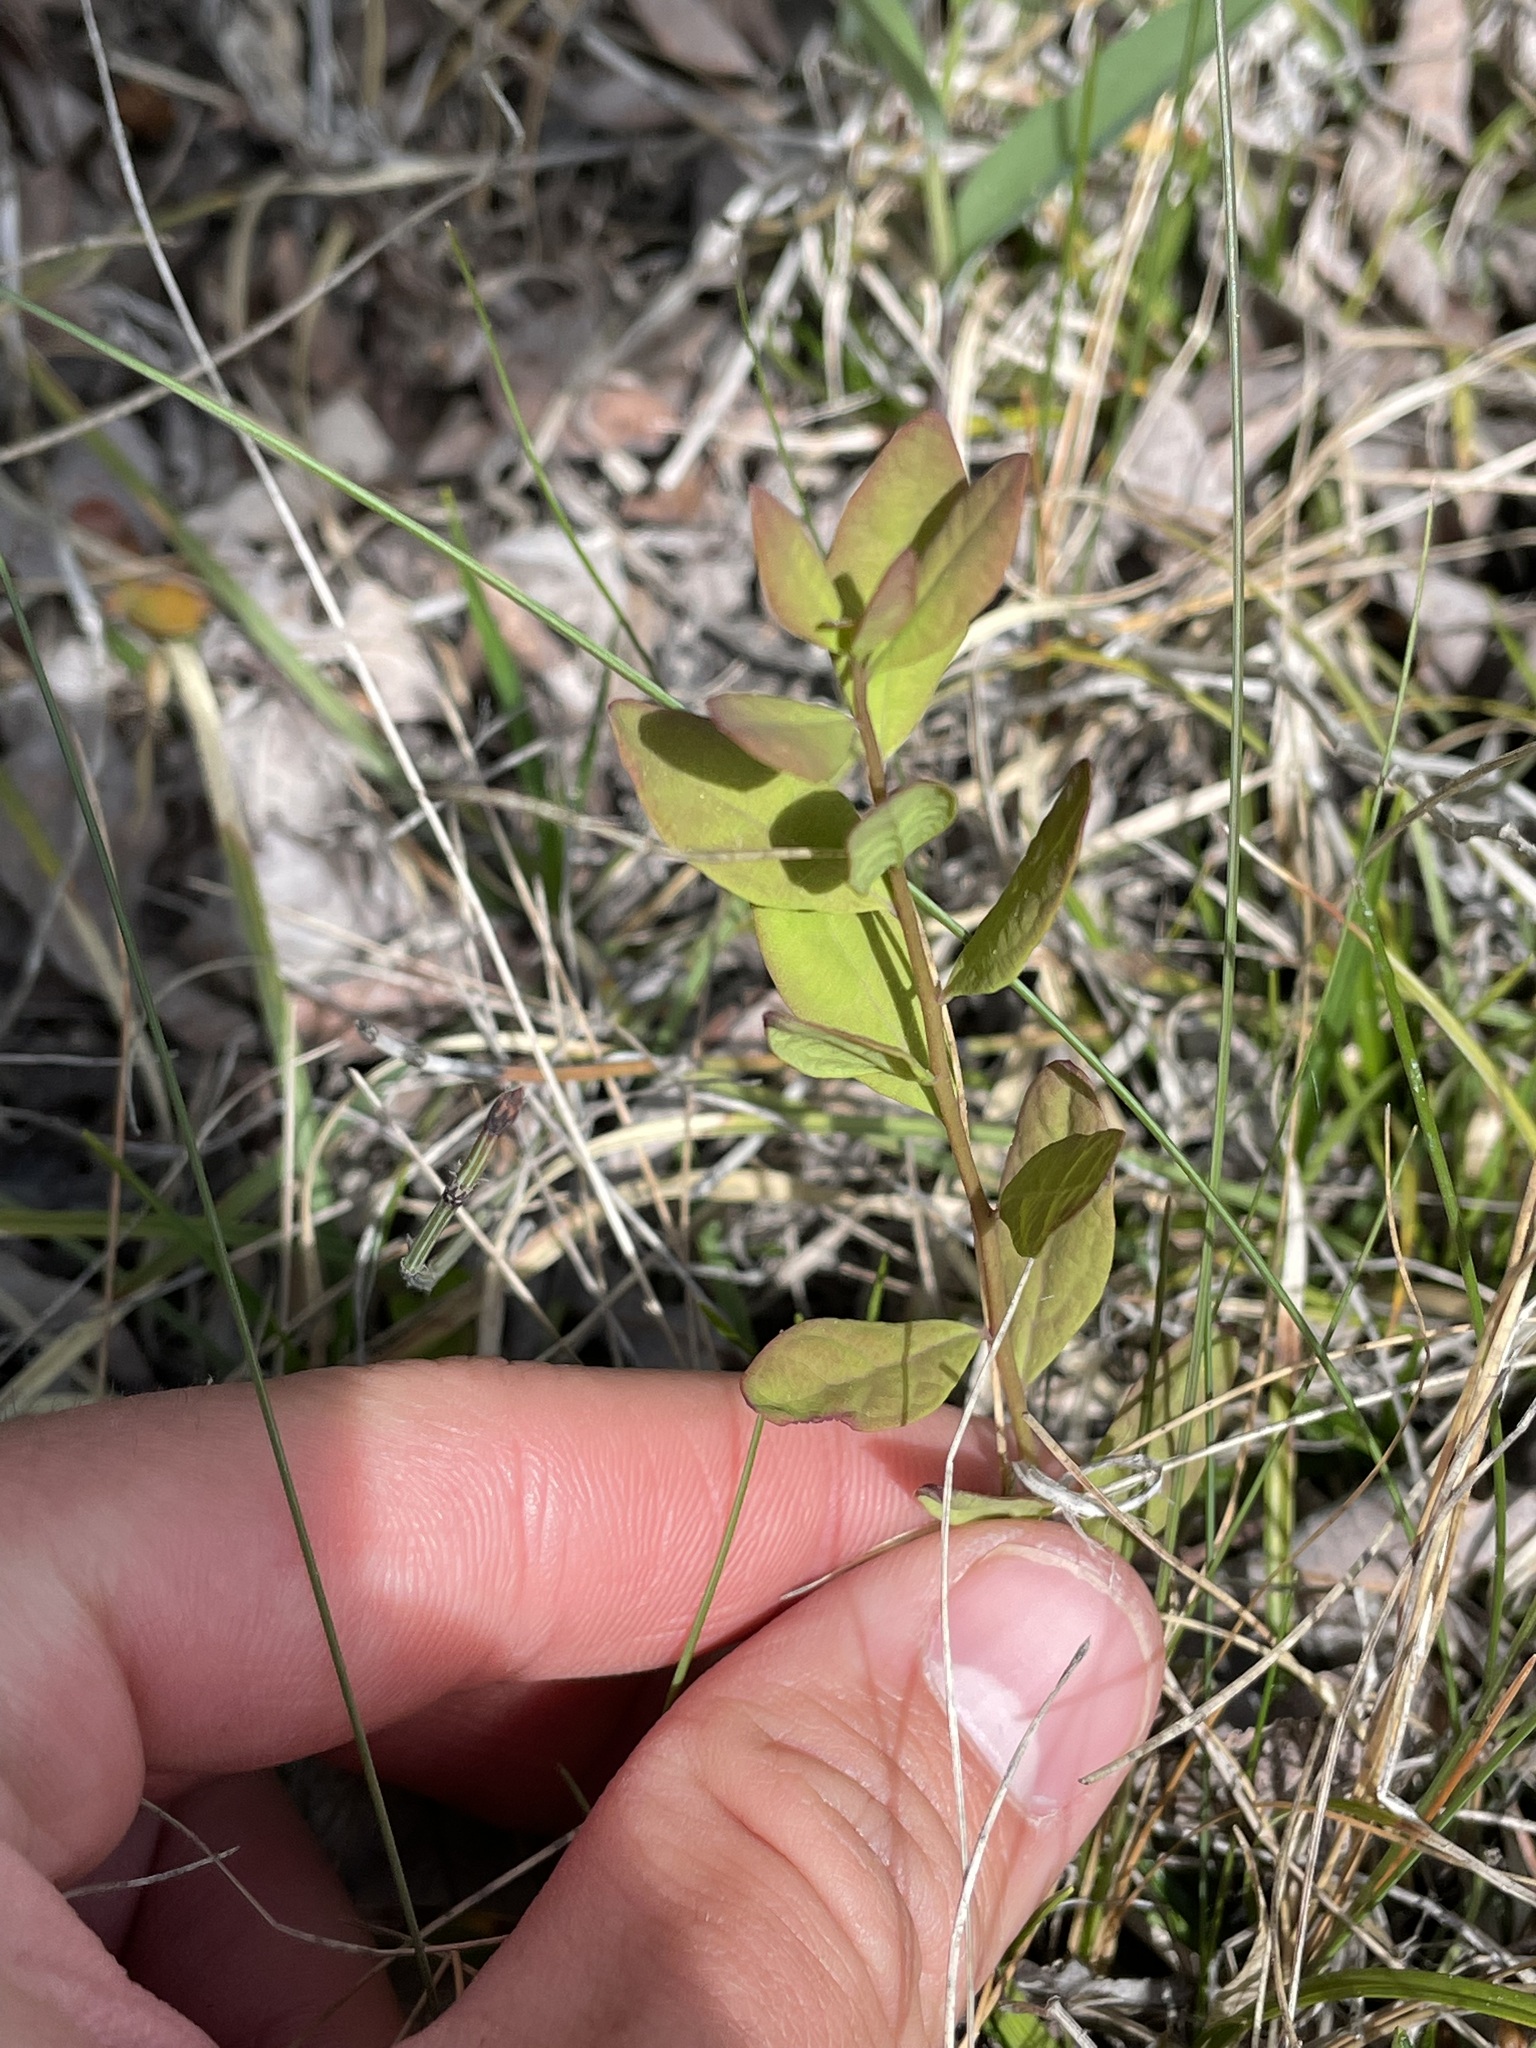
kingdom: Plantae
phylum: Tracheophyta
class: Magnoliopsida
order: Santalales
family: Comandraceae
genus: Geocaulon
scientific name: Geocaulon lividum
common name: Earthberry
